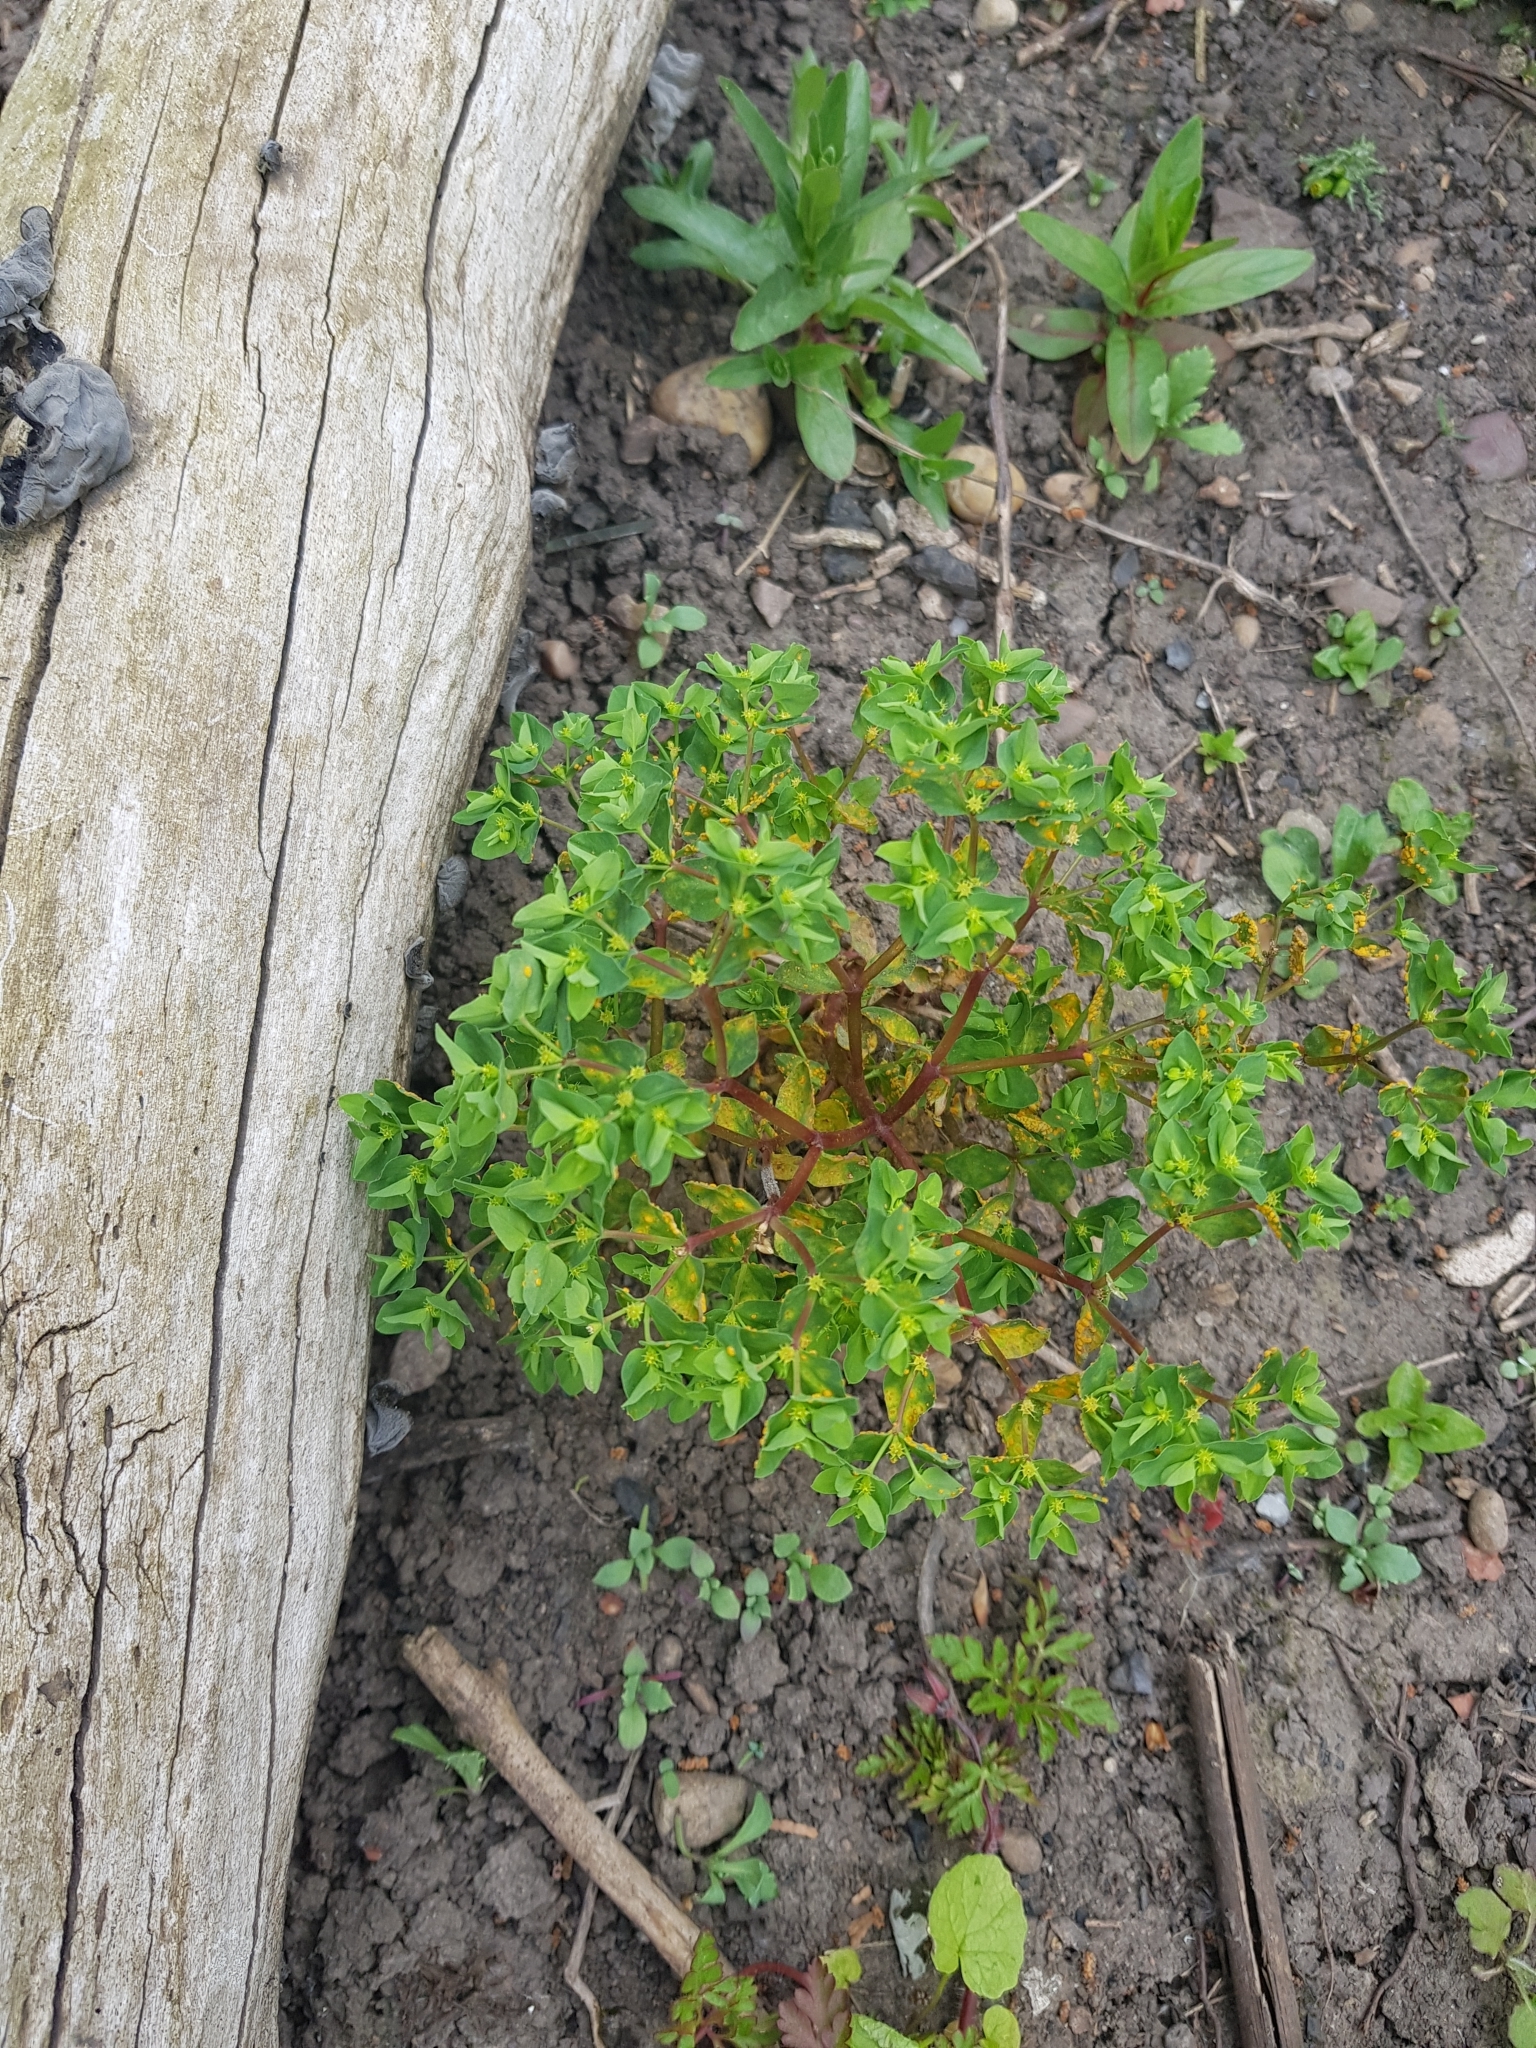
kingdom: Plantae
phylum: Tracheophyta
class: Magnoliopsida
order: Malpighiales
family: Euphorbiaceae
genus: Euphorbia
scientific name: Euphorbia peplus
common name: Petty spurge
